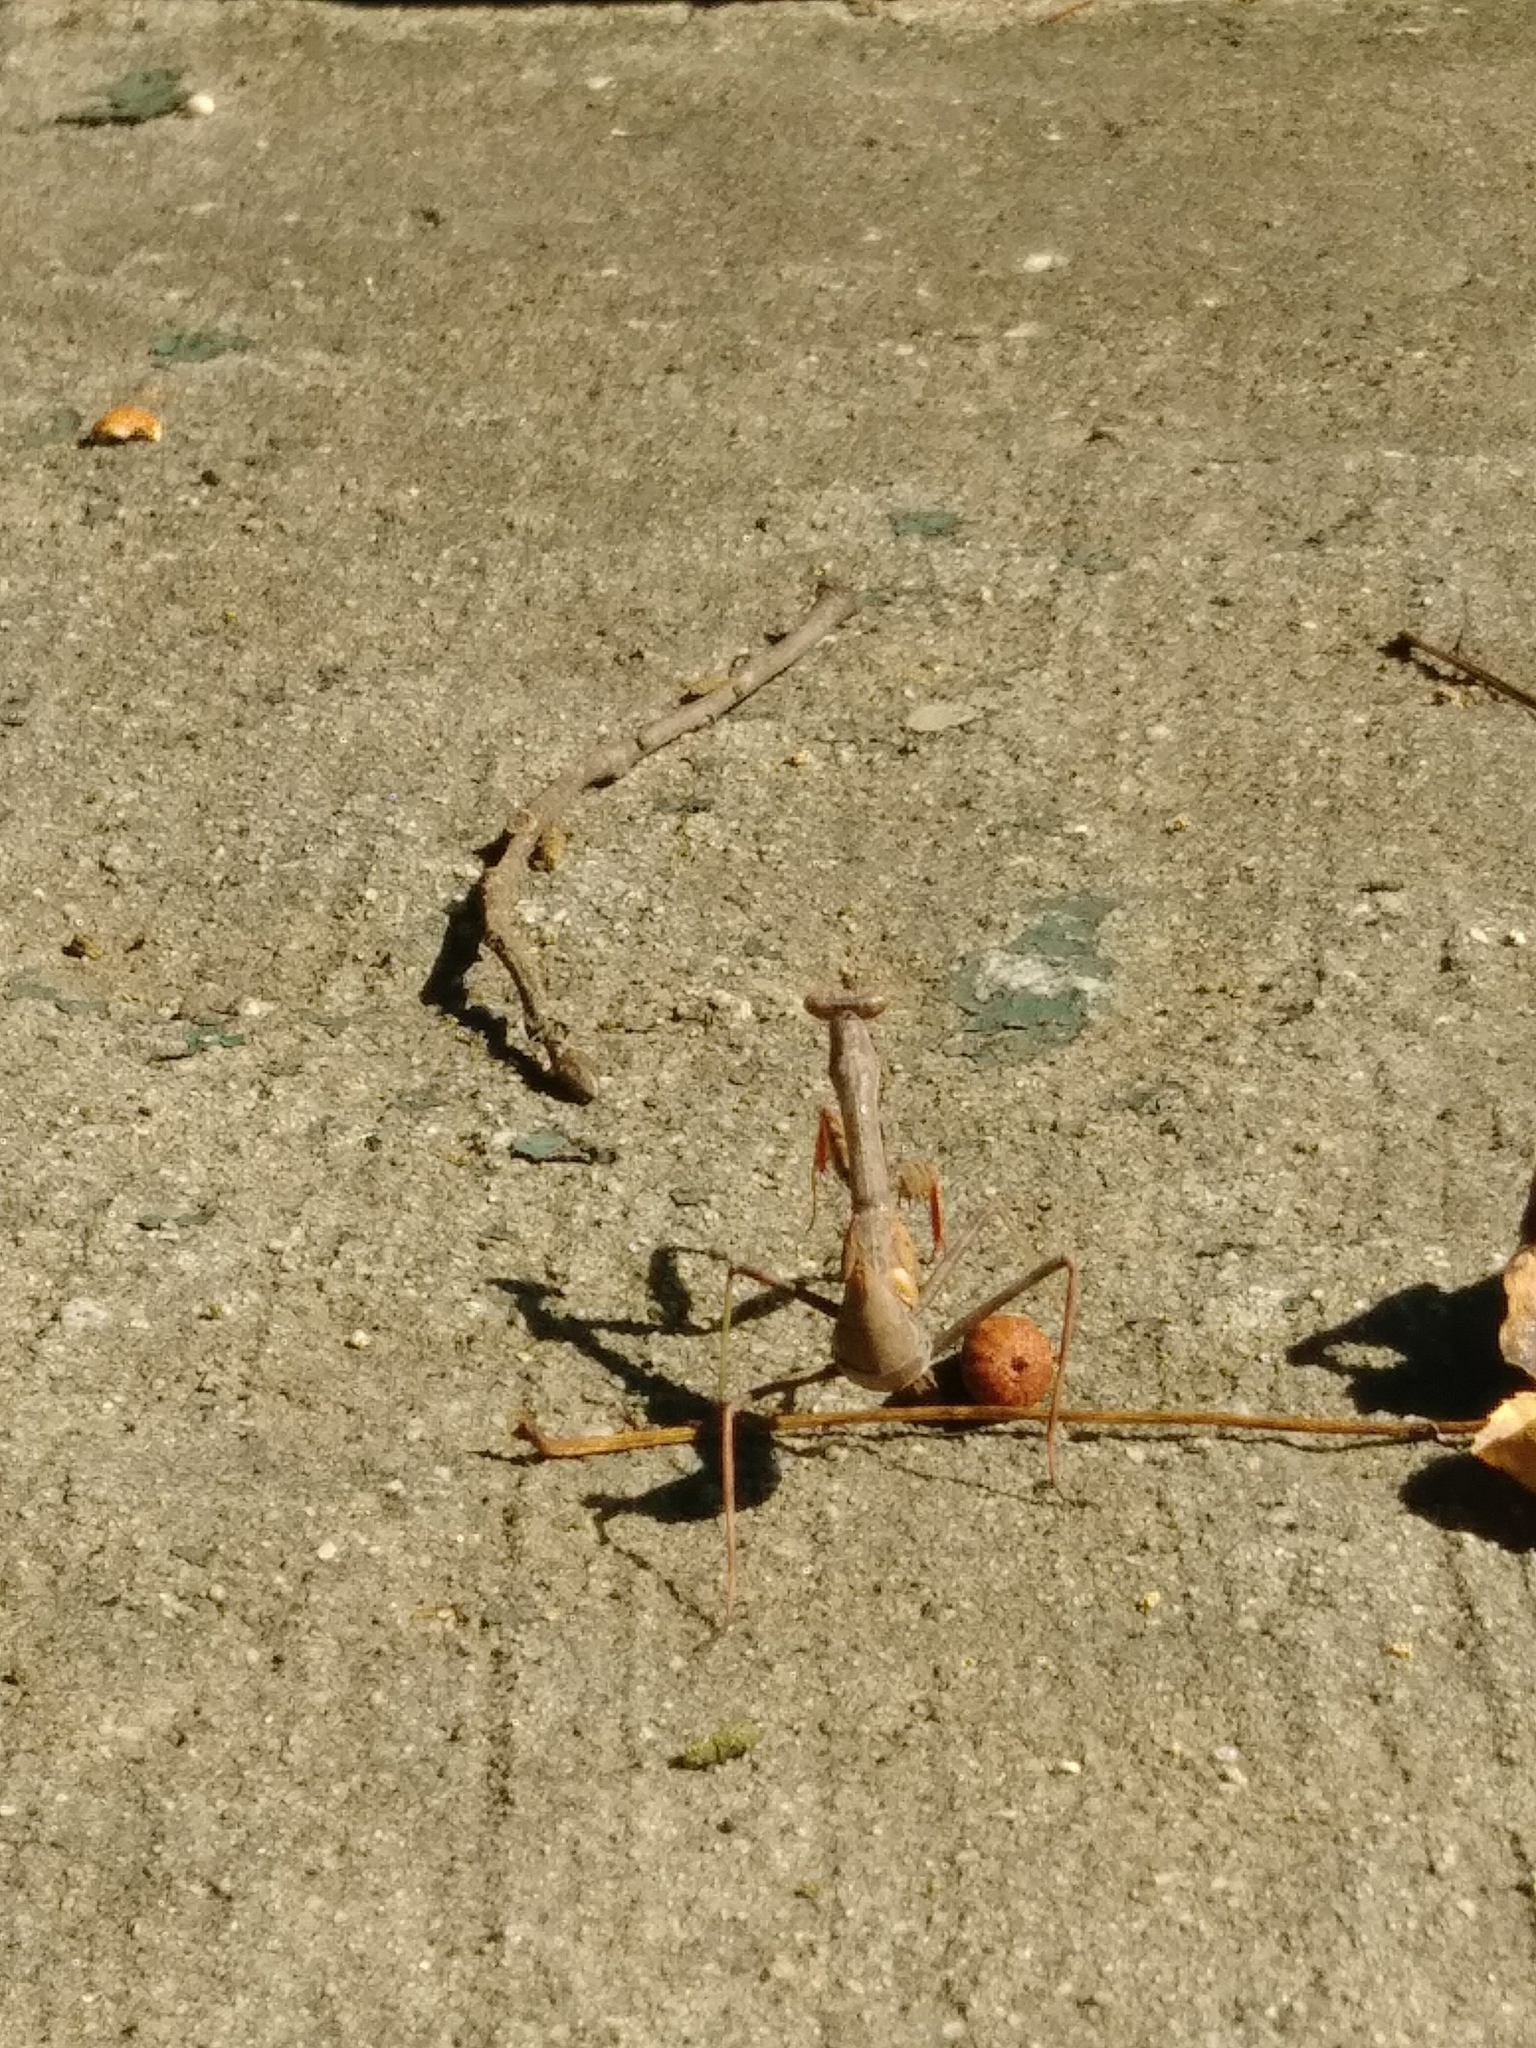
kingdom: Animalia
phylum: Arthropoda
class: Insecta
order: Mantodea
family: Mantidae
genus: Stagmomantis
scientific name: Stagmomantis carolina
